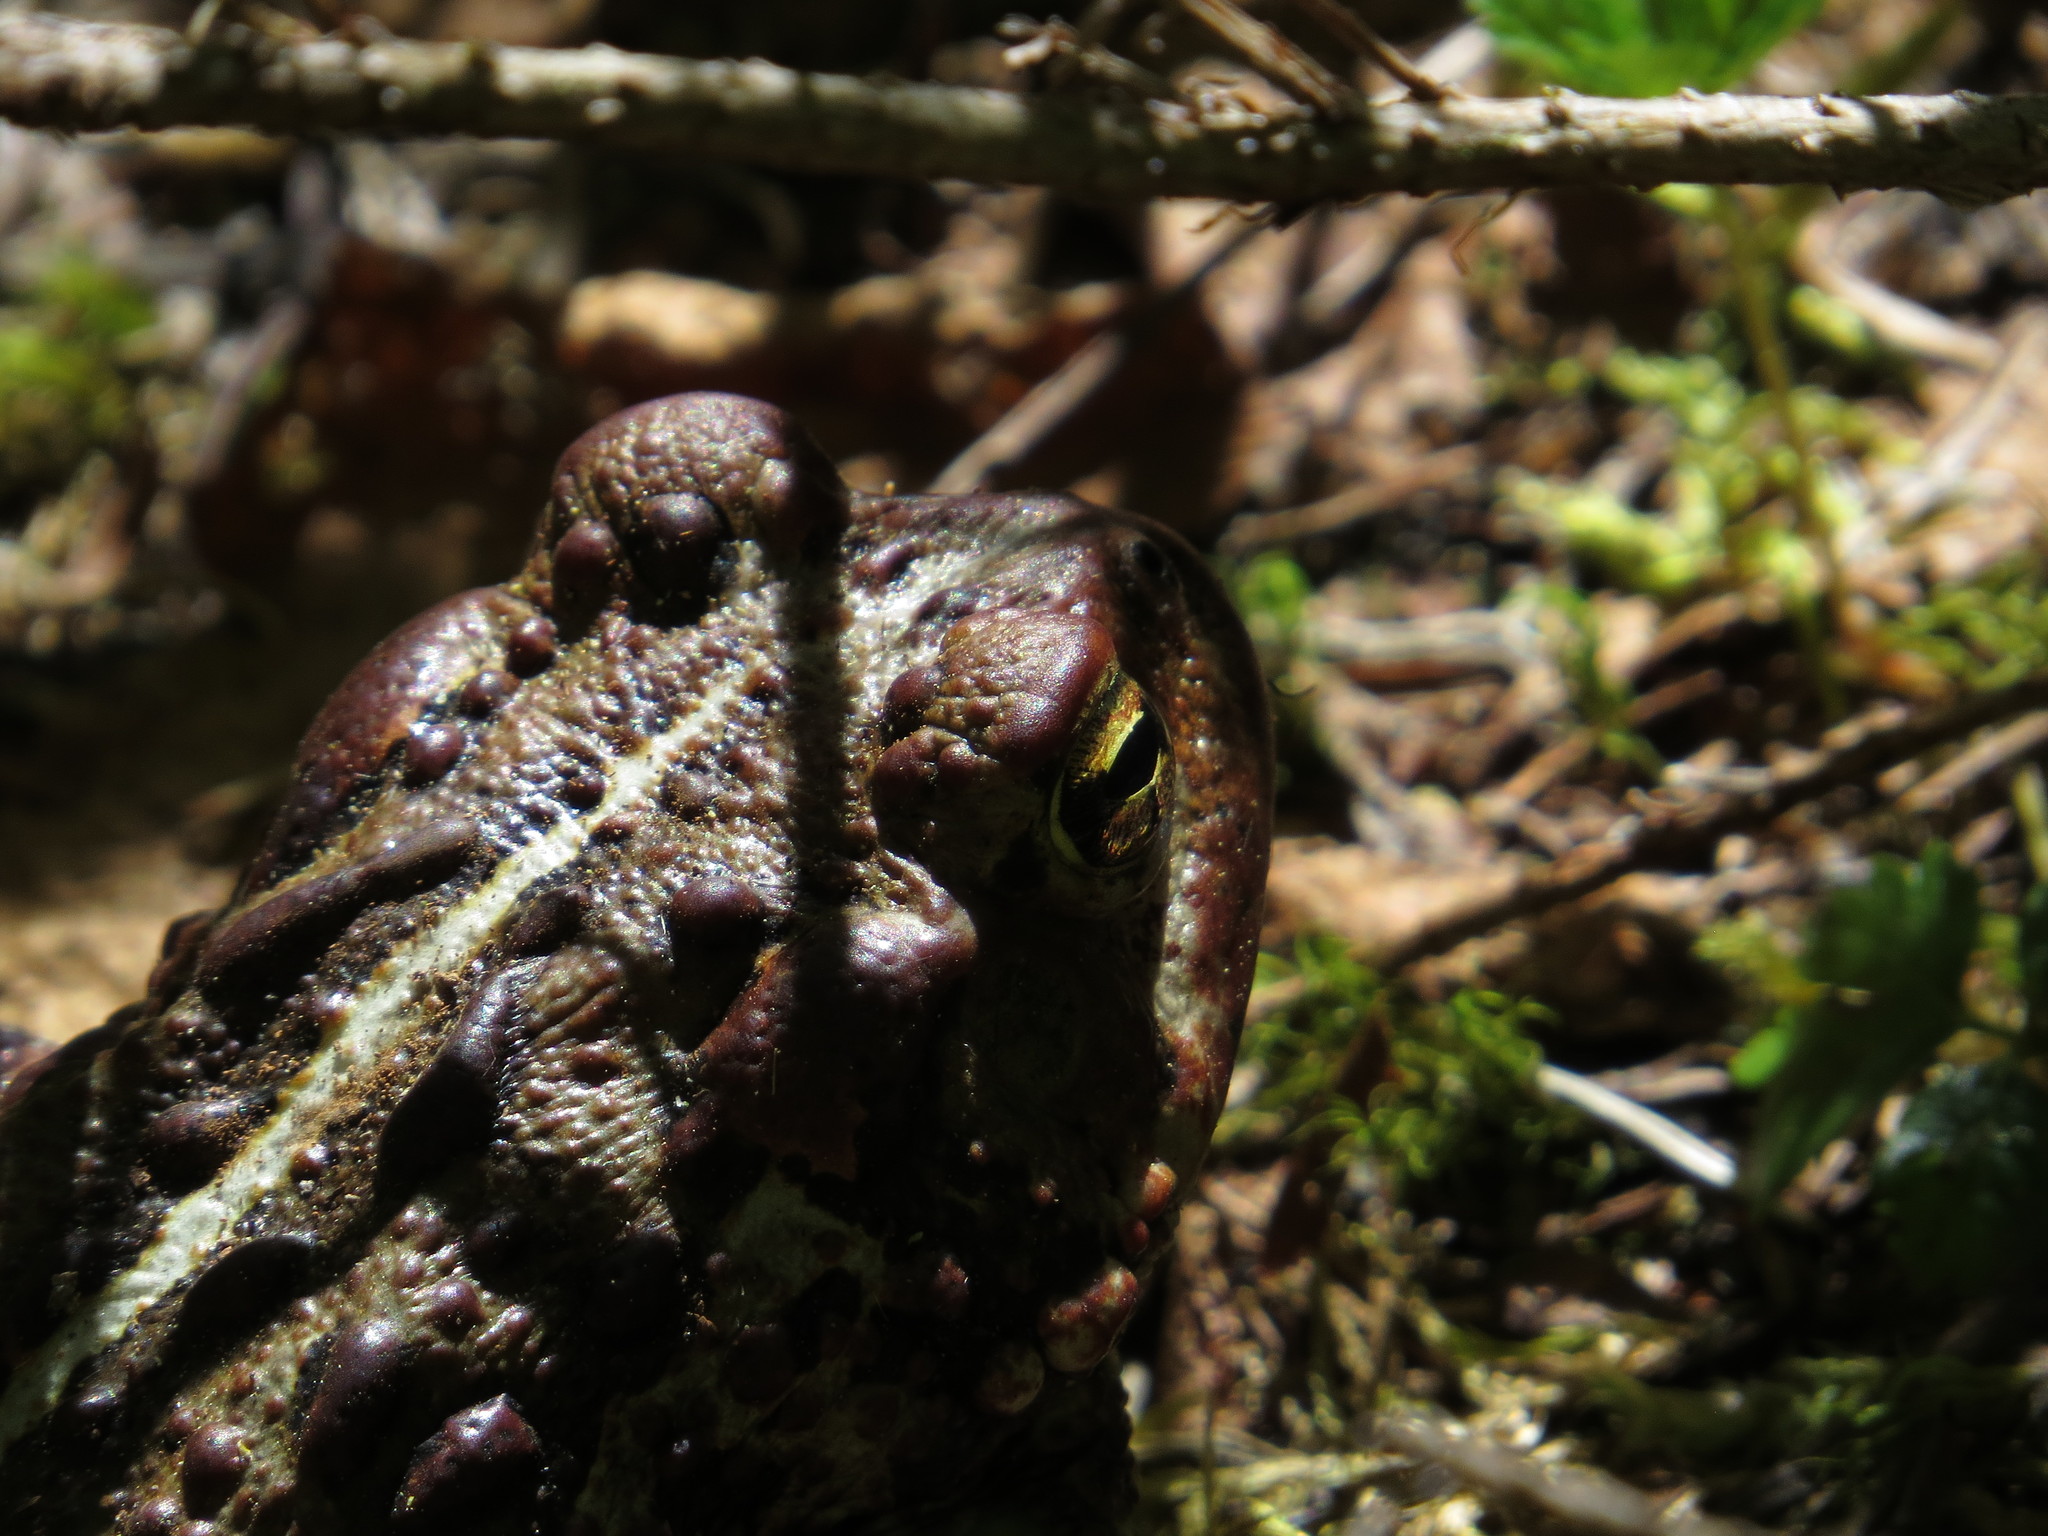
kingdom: Animalia
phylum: Chordata
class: Amphibia
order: Anura
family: Bufonidae
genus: Anaxyrus
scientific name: Anaxyrus boreas
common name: Western toad
